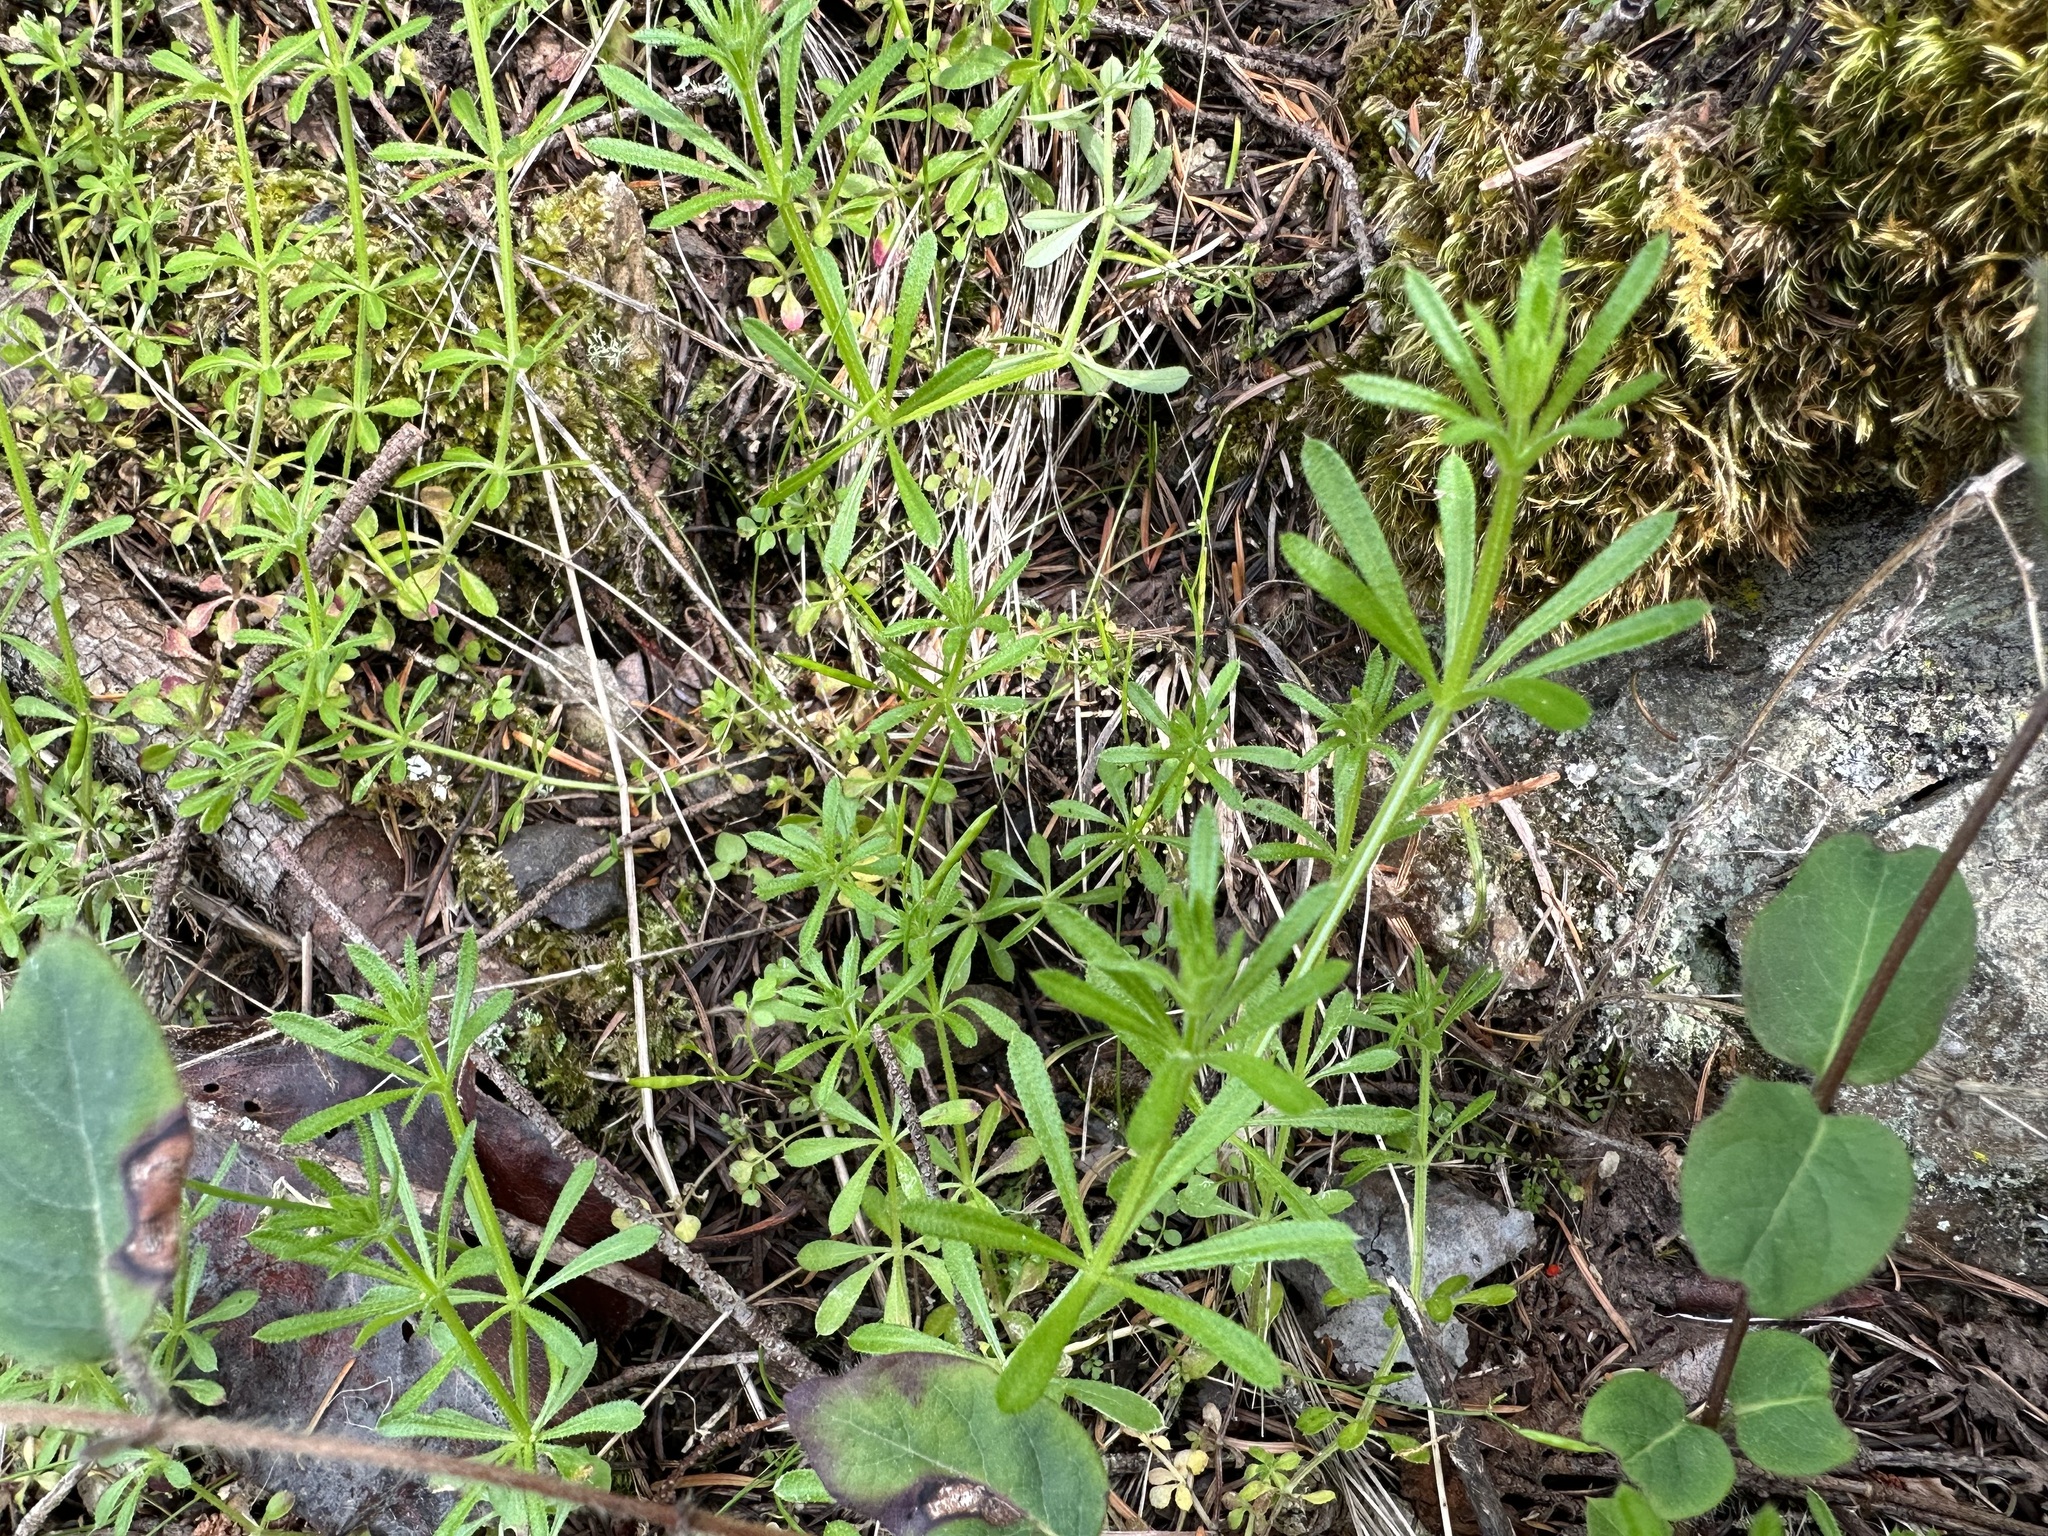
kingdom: Plantae
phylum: Tracheophyta
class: Magnoliopsida
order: Gentianales
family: Rubiaceae
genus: Galium
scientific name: Galium aparine
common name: Cleavers
